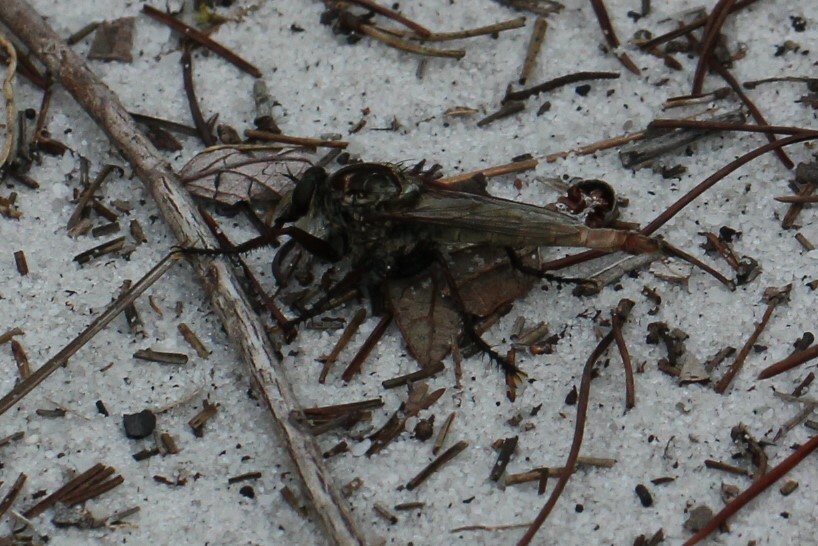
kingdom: Animalia
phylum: Arthropoda
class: Insecta
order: Diptera
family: Asilidae
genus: Proctacanthus
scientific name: Proctacanthus brevipennis
